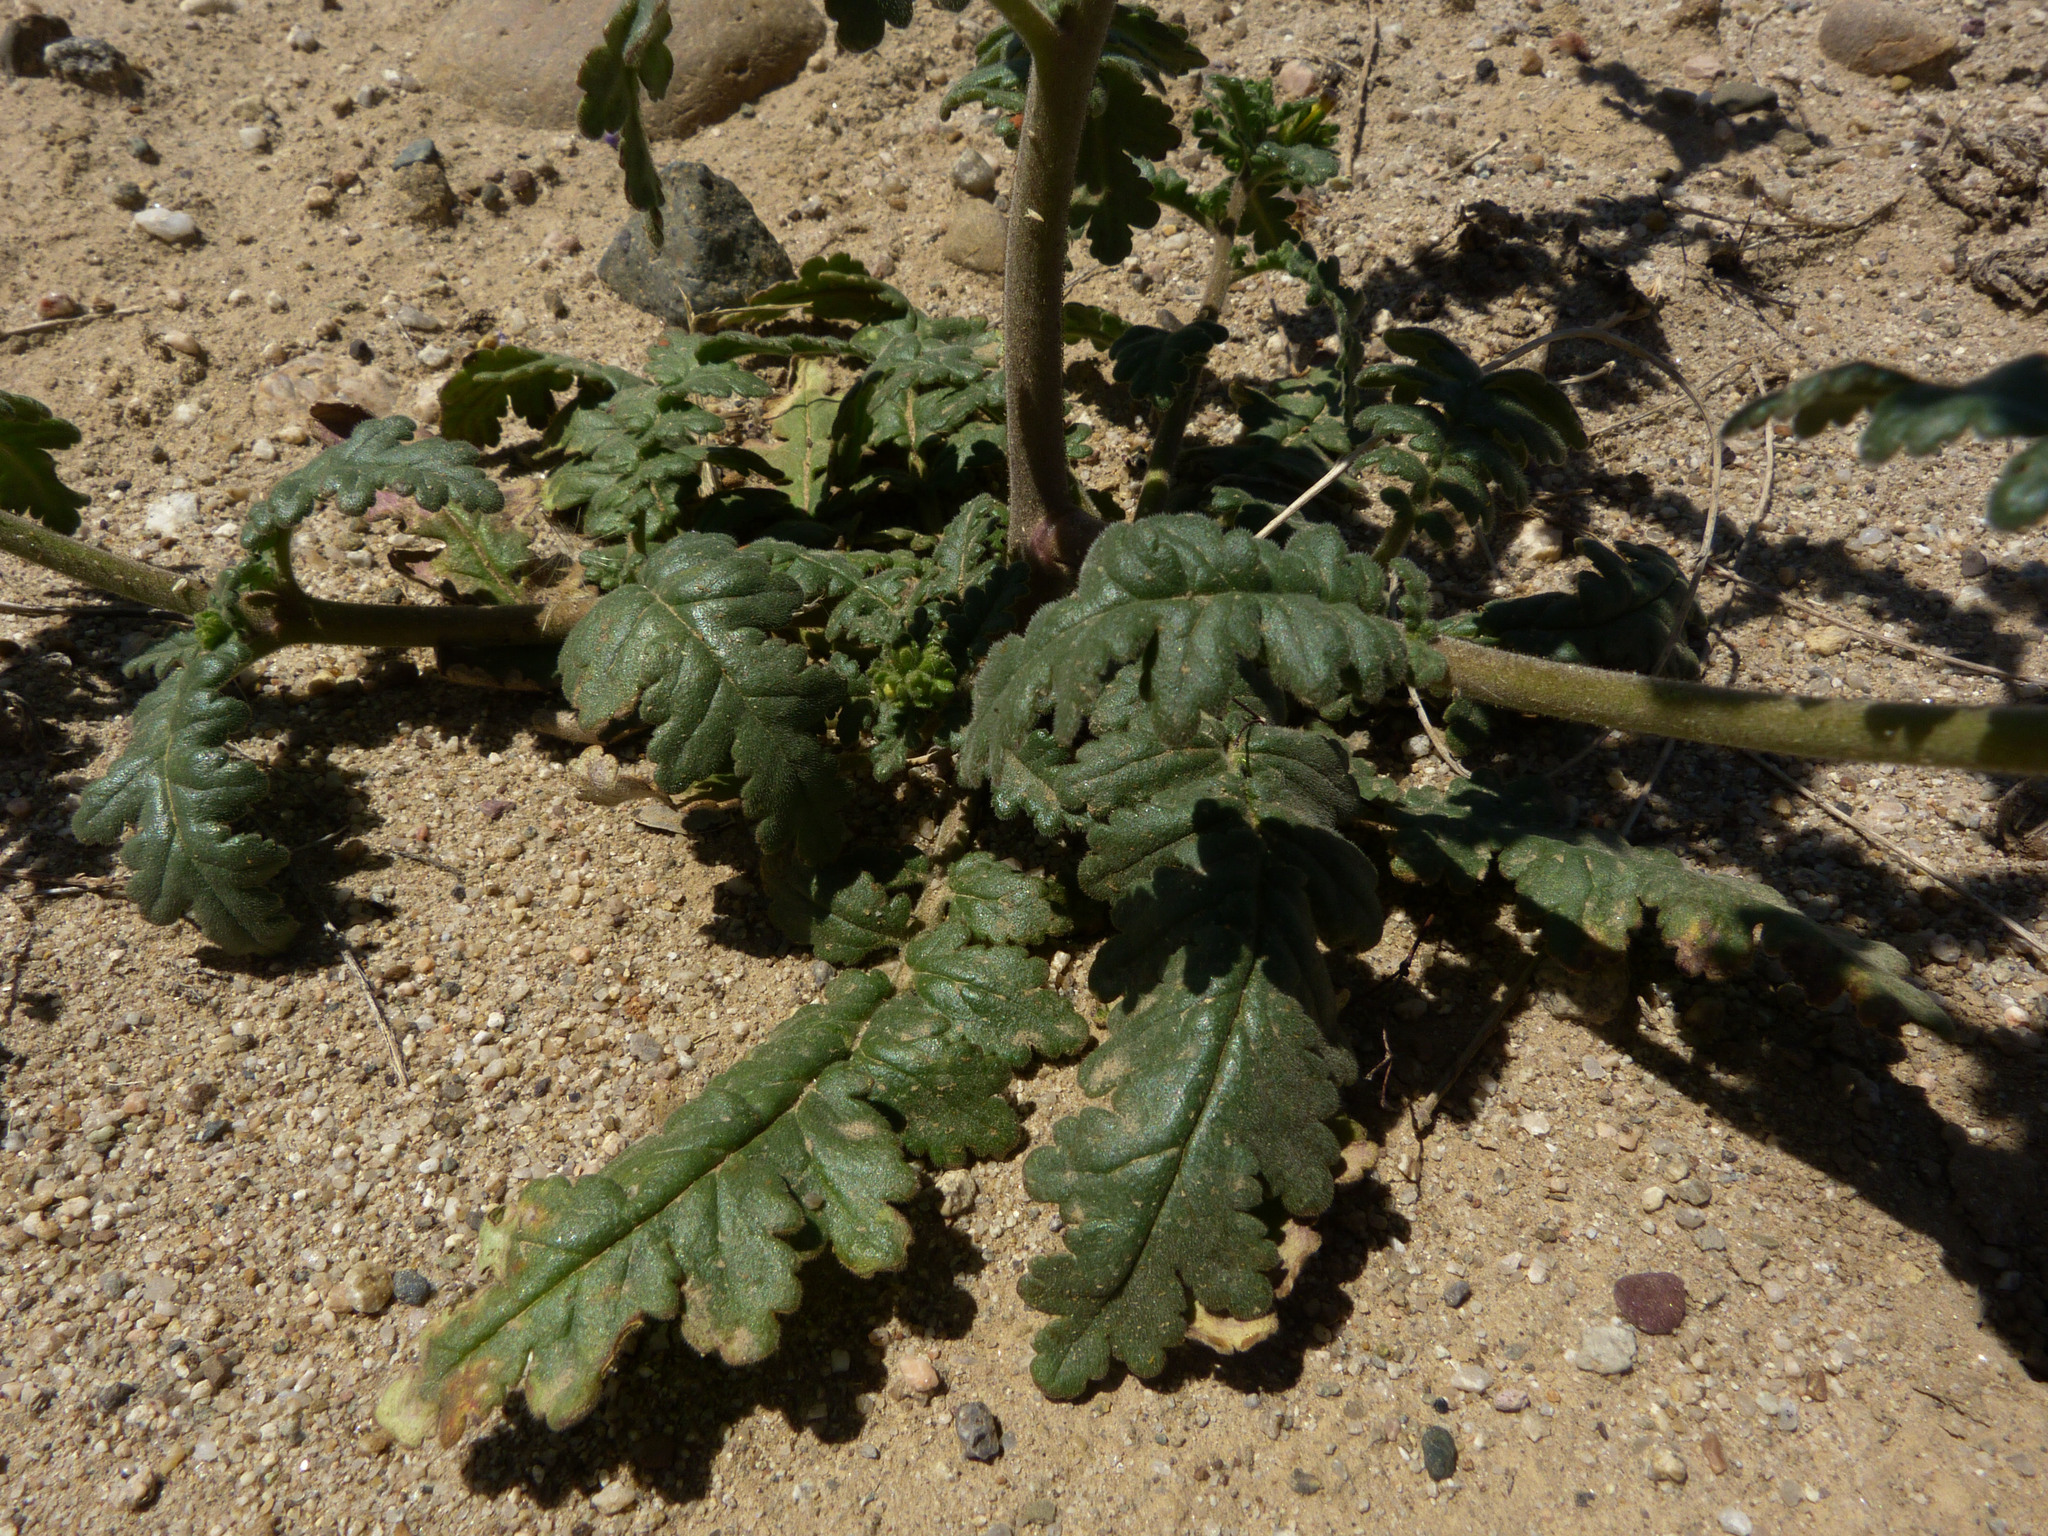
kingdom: Plantae
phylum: Tracheophyta
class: Magnoliopsida
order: Boraginales
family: Hydrophyllaceae
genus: Phacelia
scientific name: Phacelia brachyloba
